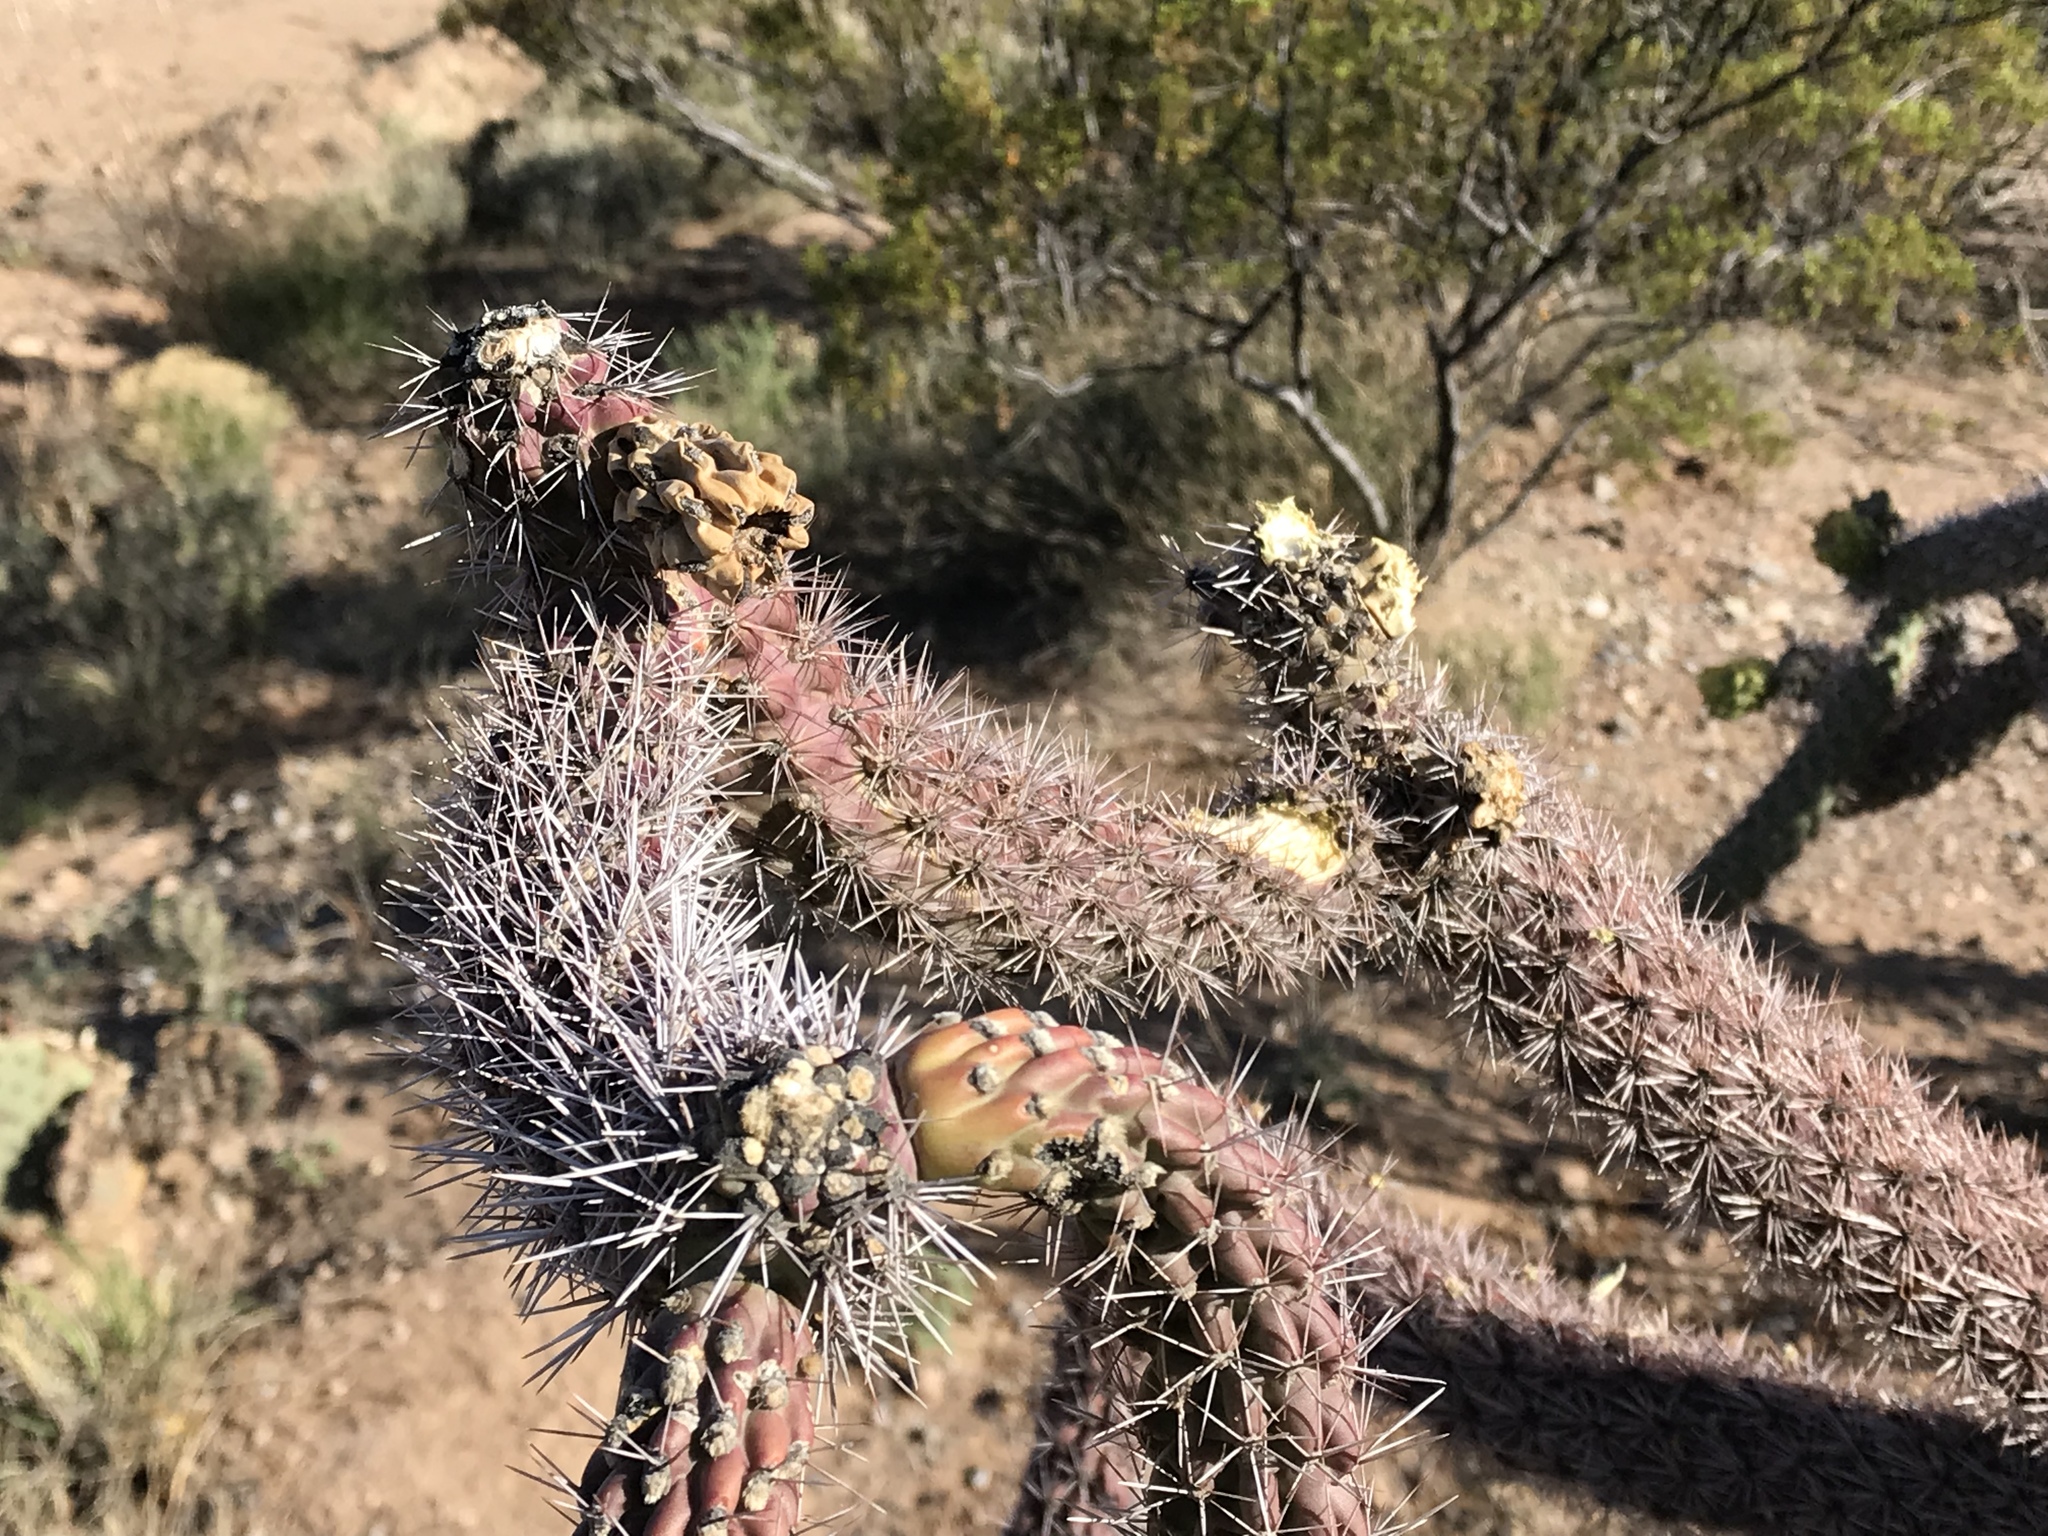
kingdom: Plantae
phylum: Tracheophyta
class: Magnoliopsida
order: Caryophyllales
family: Cactaceae
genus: Cylindropuntia
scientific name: Cylindropuntia imbricata
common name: Candelabrum cactus
